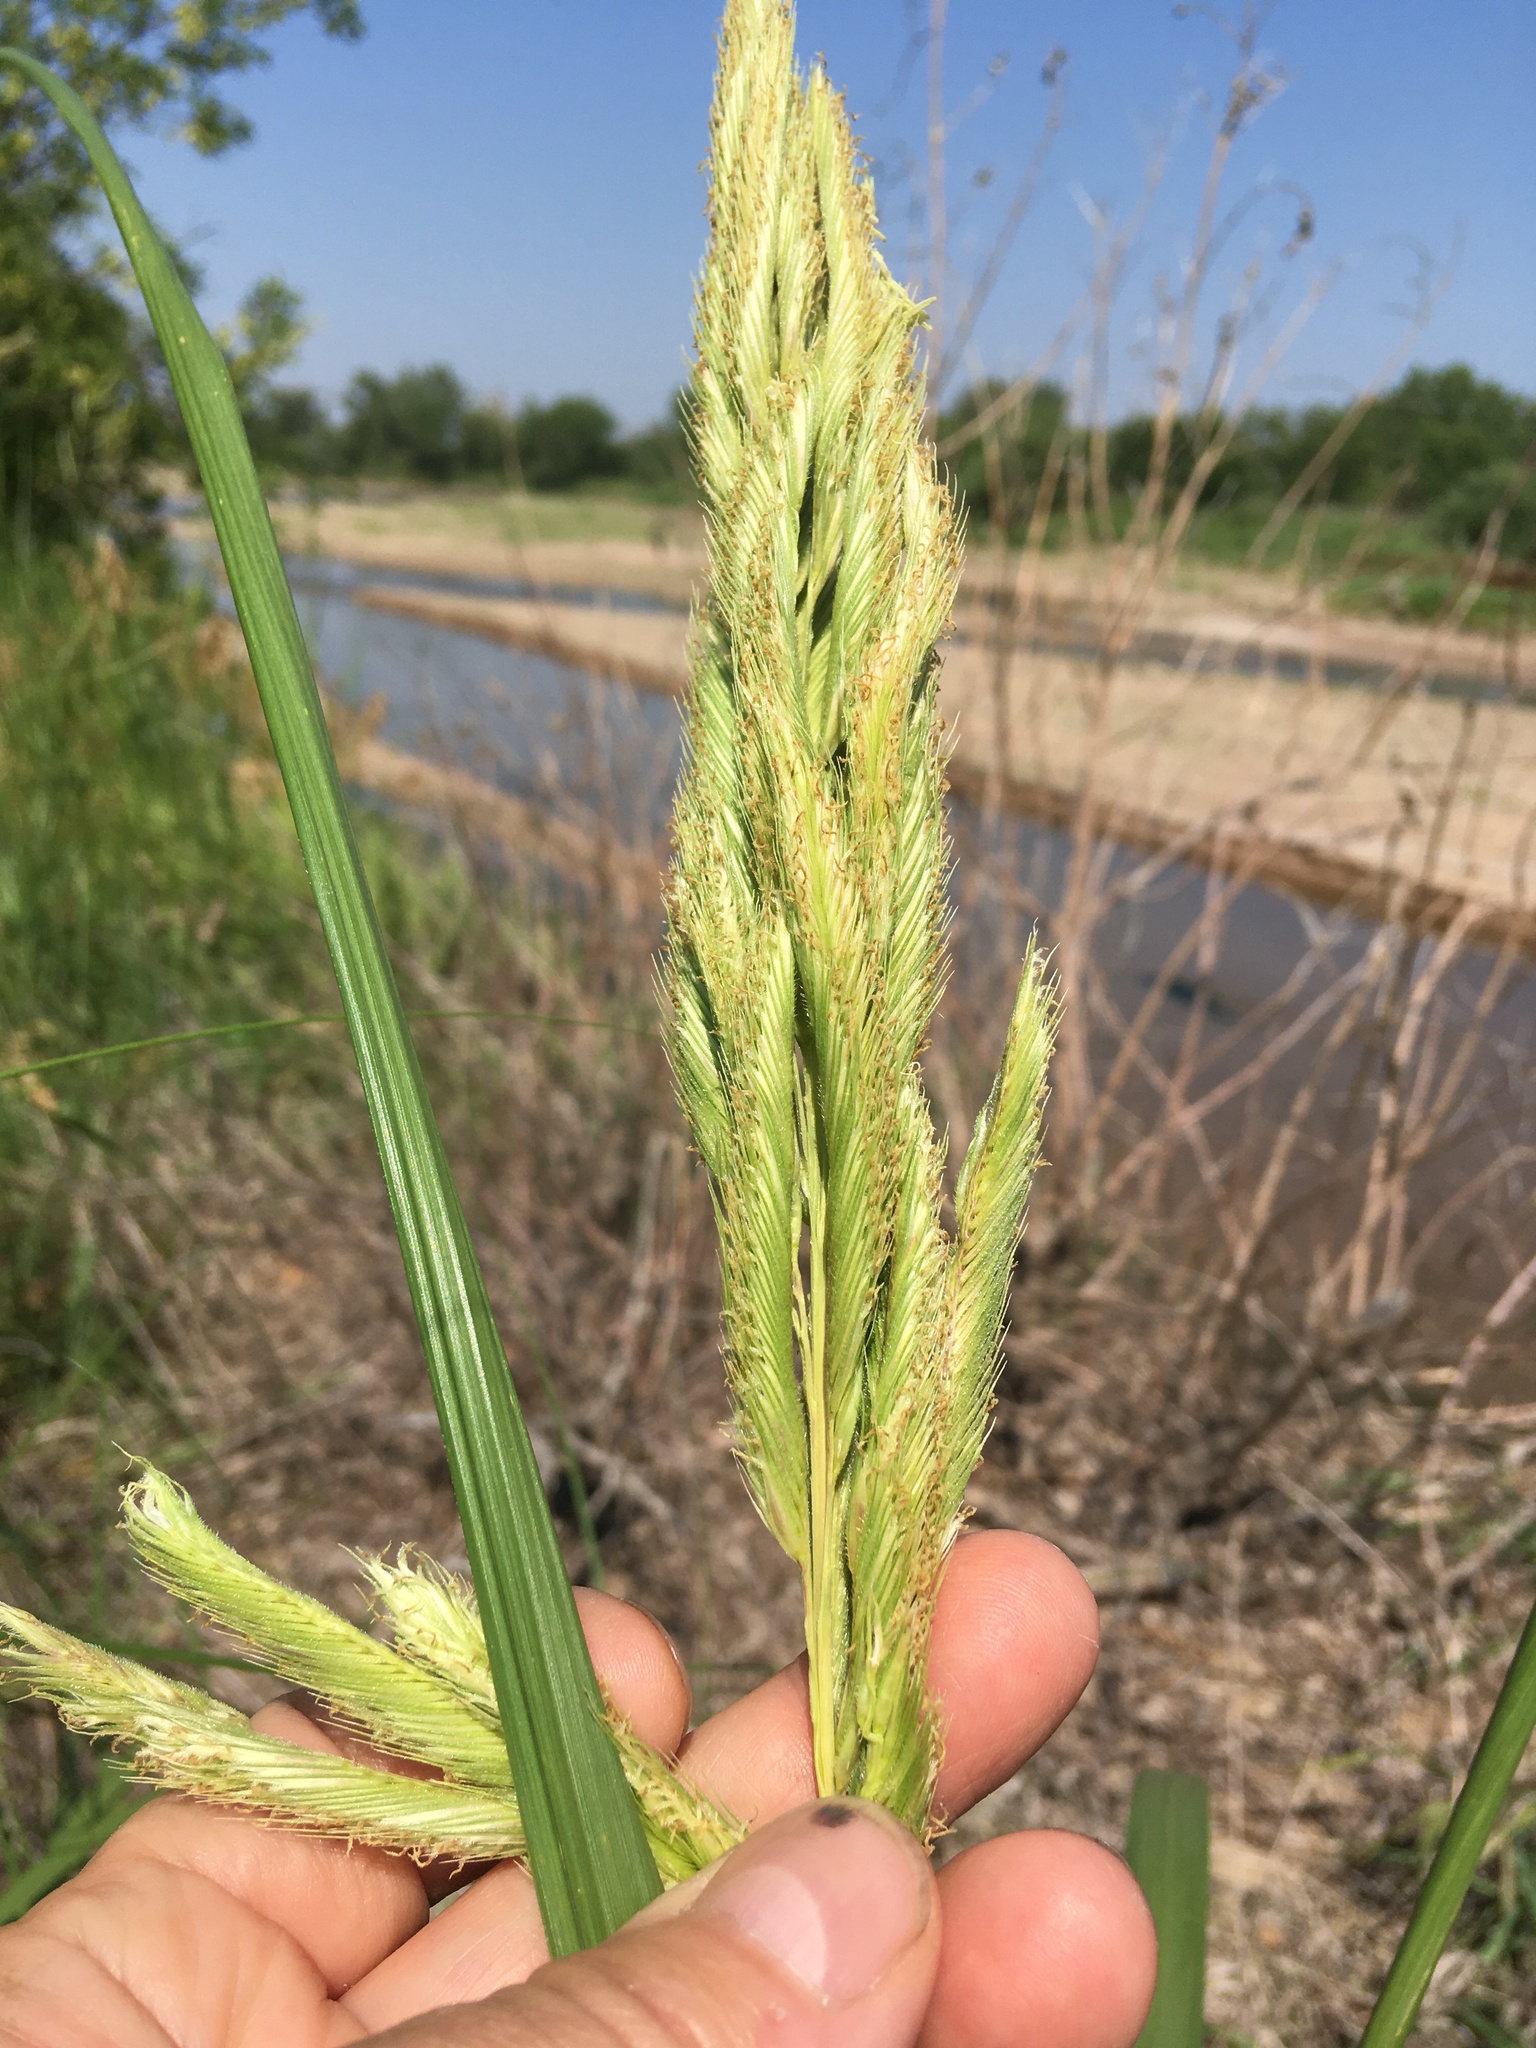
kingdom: Plantae
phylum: Tracheophyta
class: Liliopsida
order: Poales
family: Poaceae
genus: Sporobolus
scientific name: Sporobolus michauxianus
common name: Freshwater cordgrass
